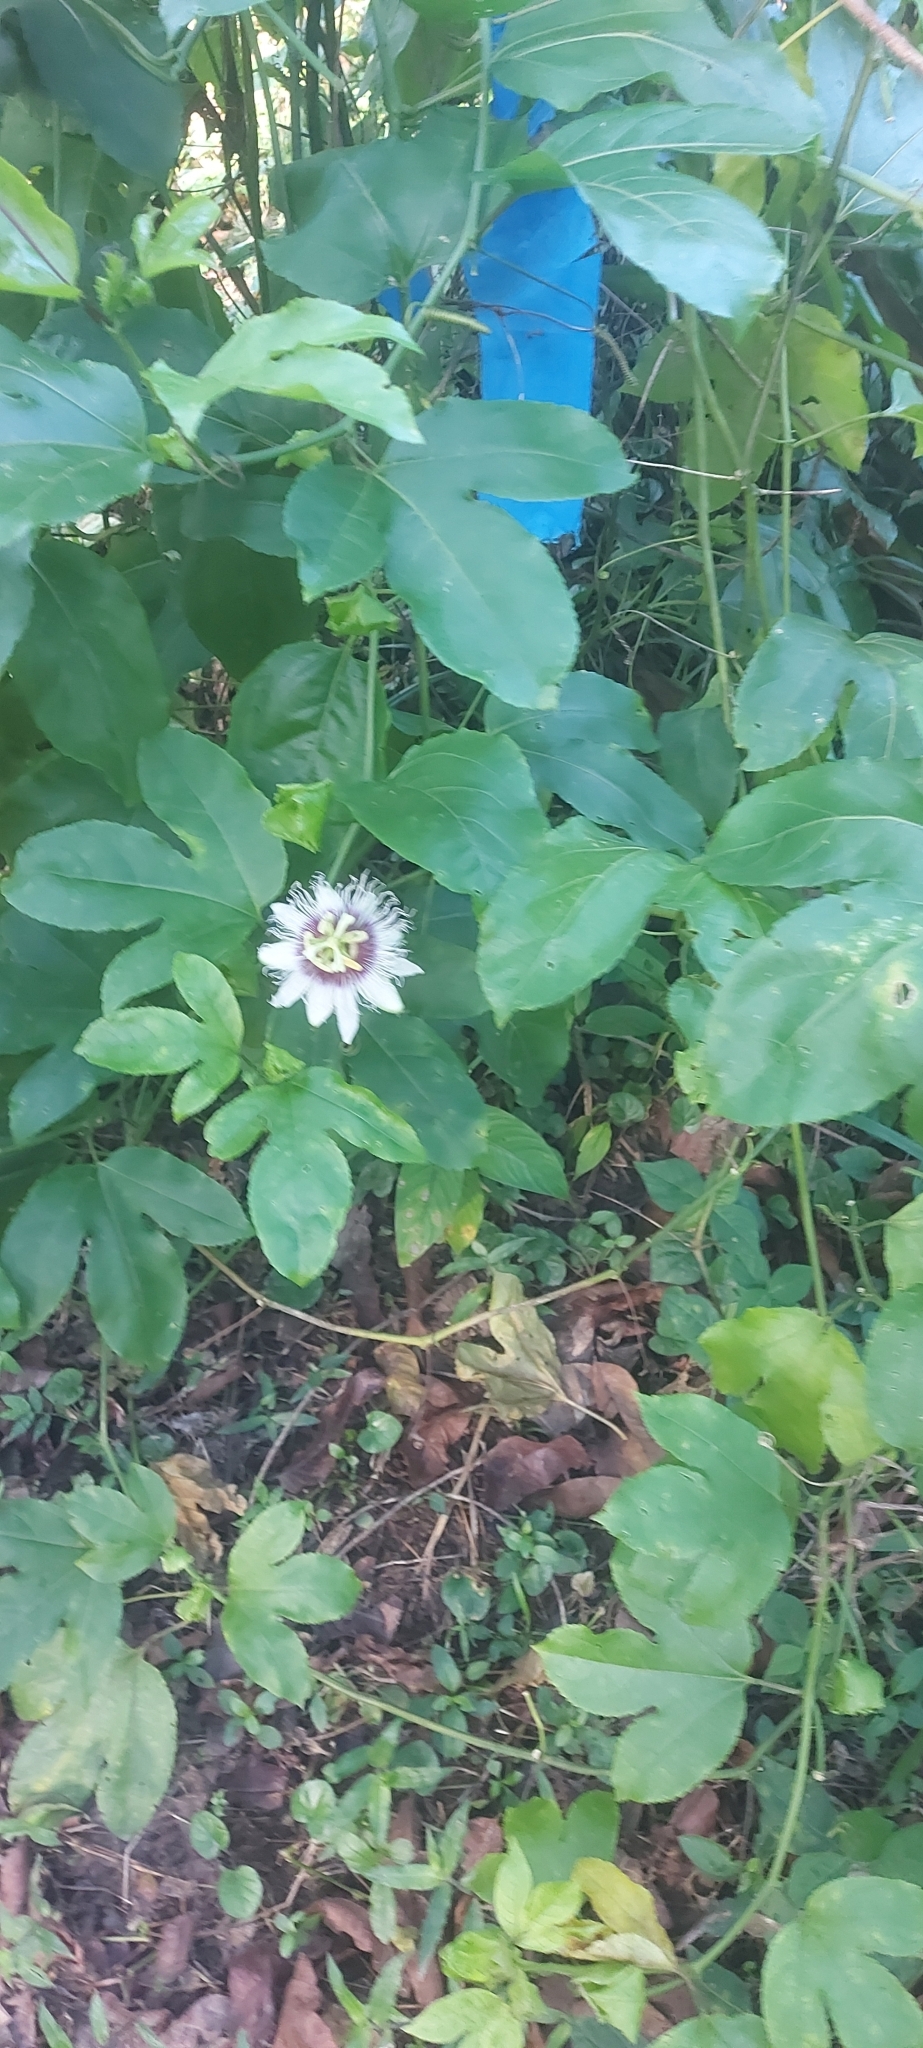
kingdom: Plantae
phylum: Tracheophyta
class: Magnoliopsida
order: Malpighiales
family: Passifloraceae
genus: Passiflora
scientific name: Passiflora edulis
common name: Purple granadilla
